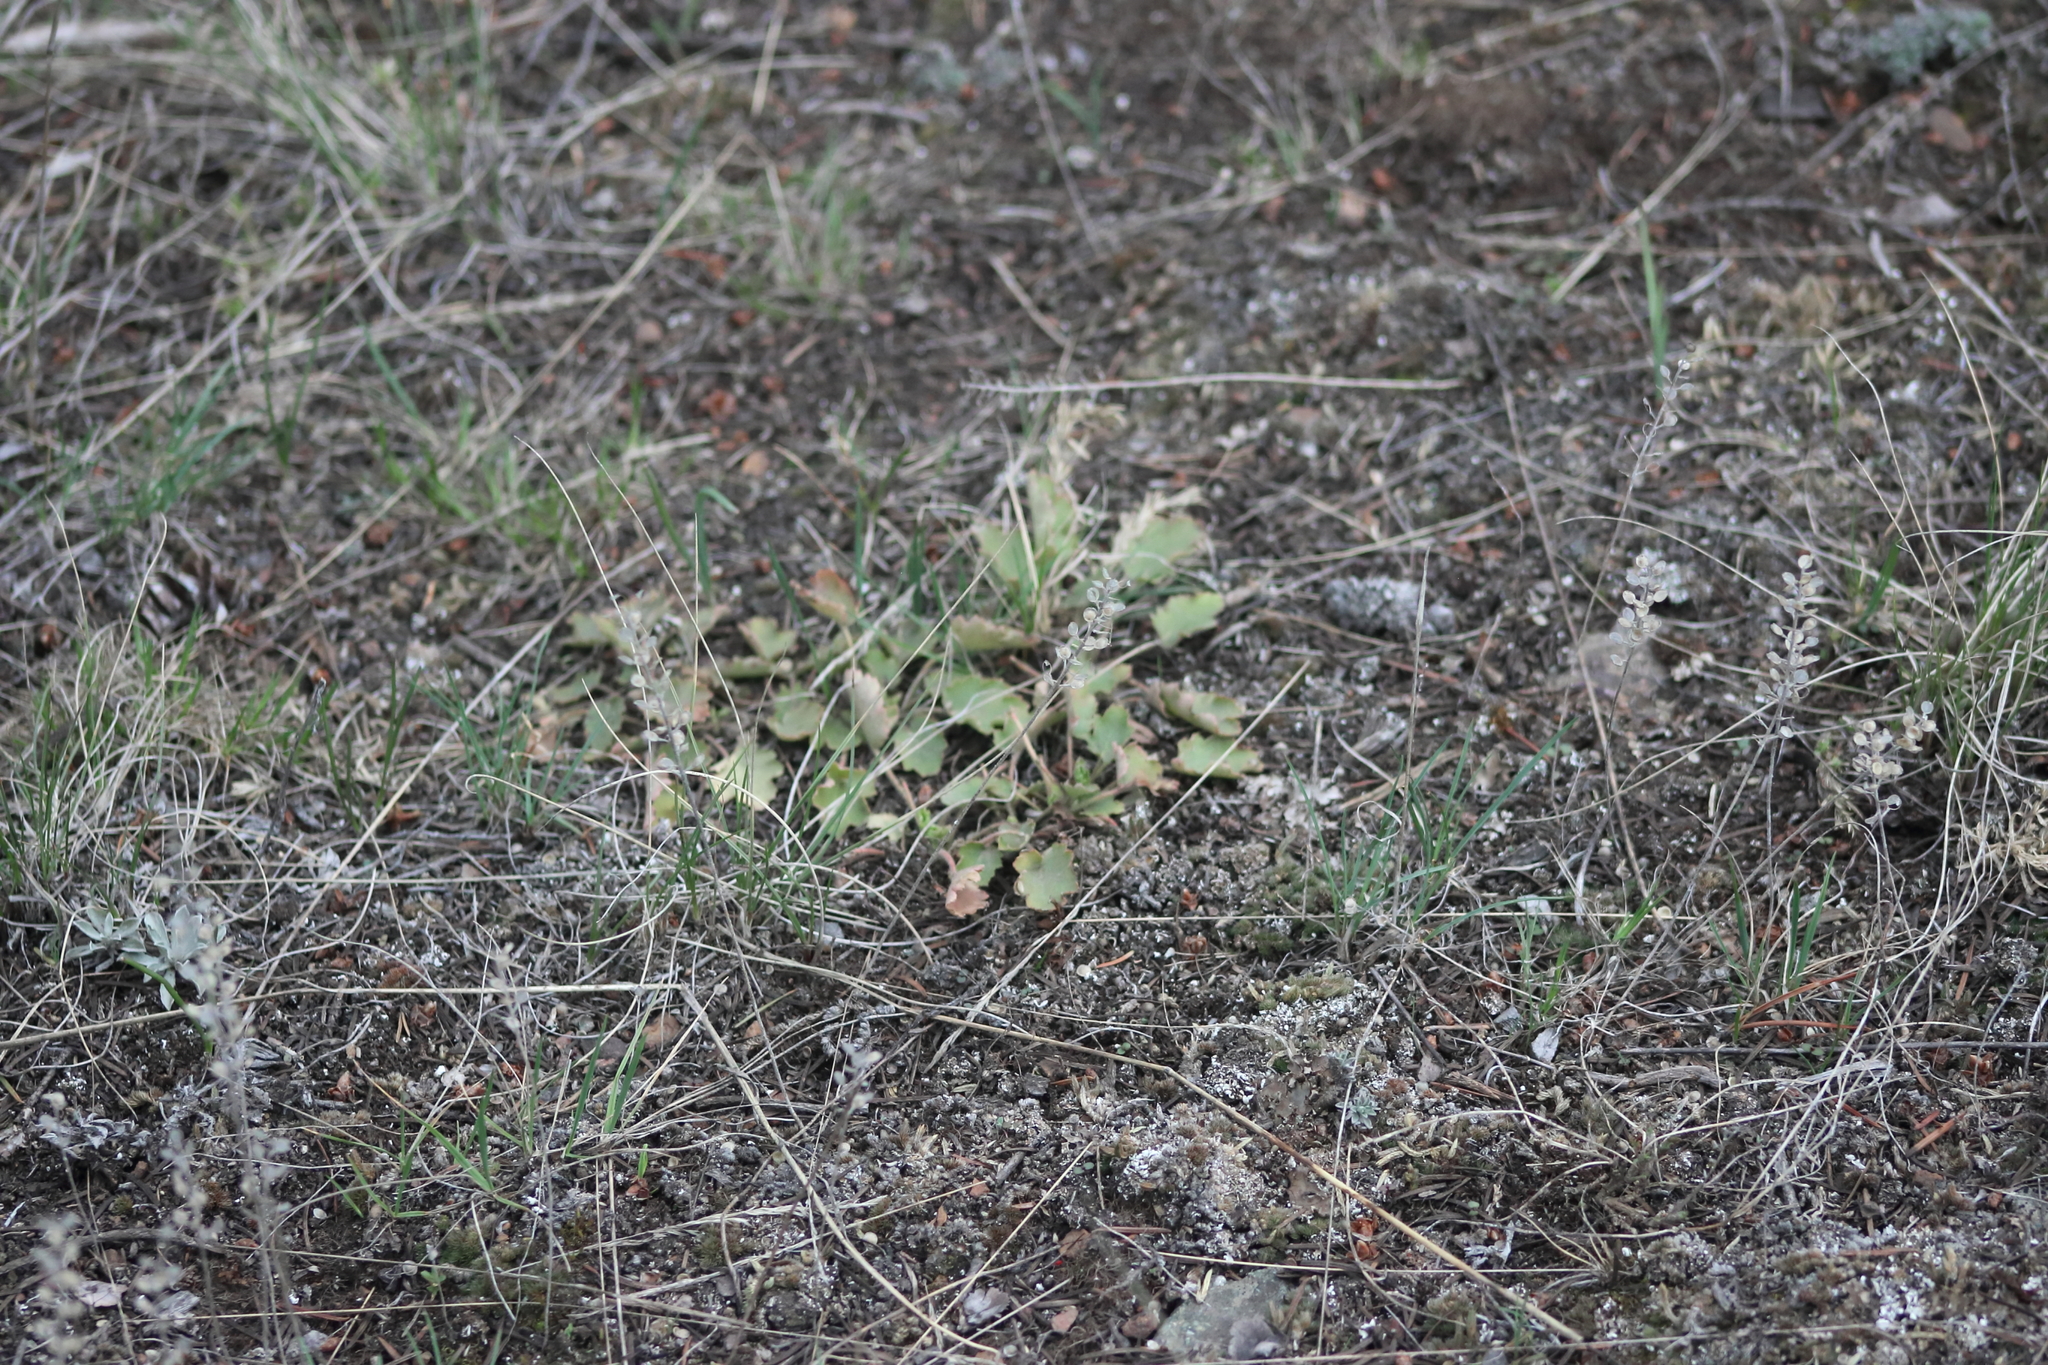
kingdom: Plantae
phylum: Tracheophyta
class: Magnoliopsida
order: Saxifragales
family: Saxifragaceae
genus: Heuchera
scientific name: Heuchera cylindrica
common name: Mat alumroot
